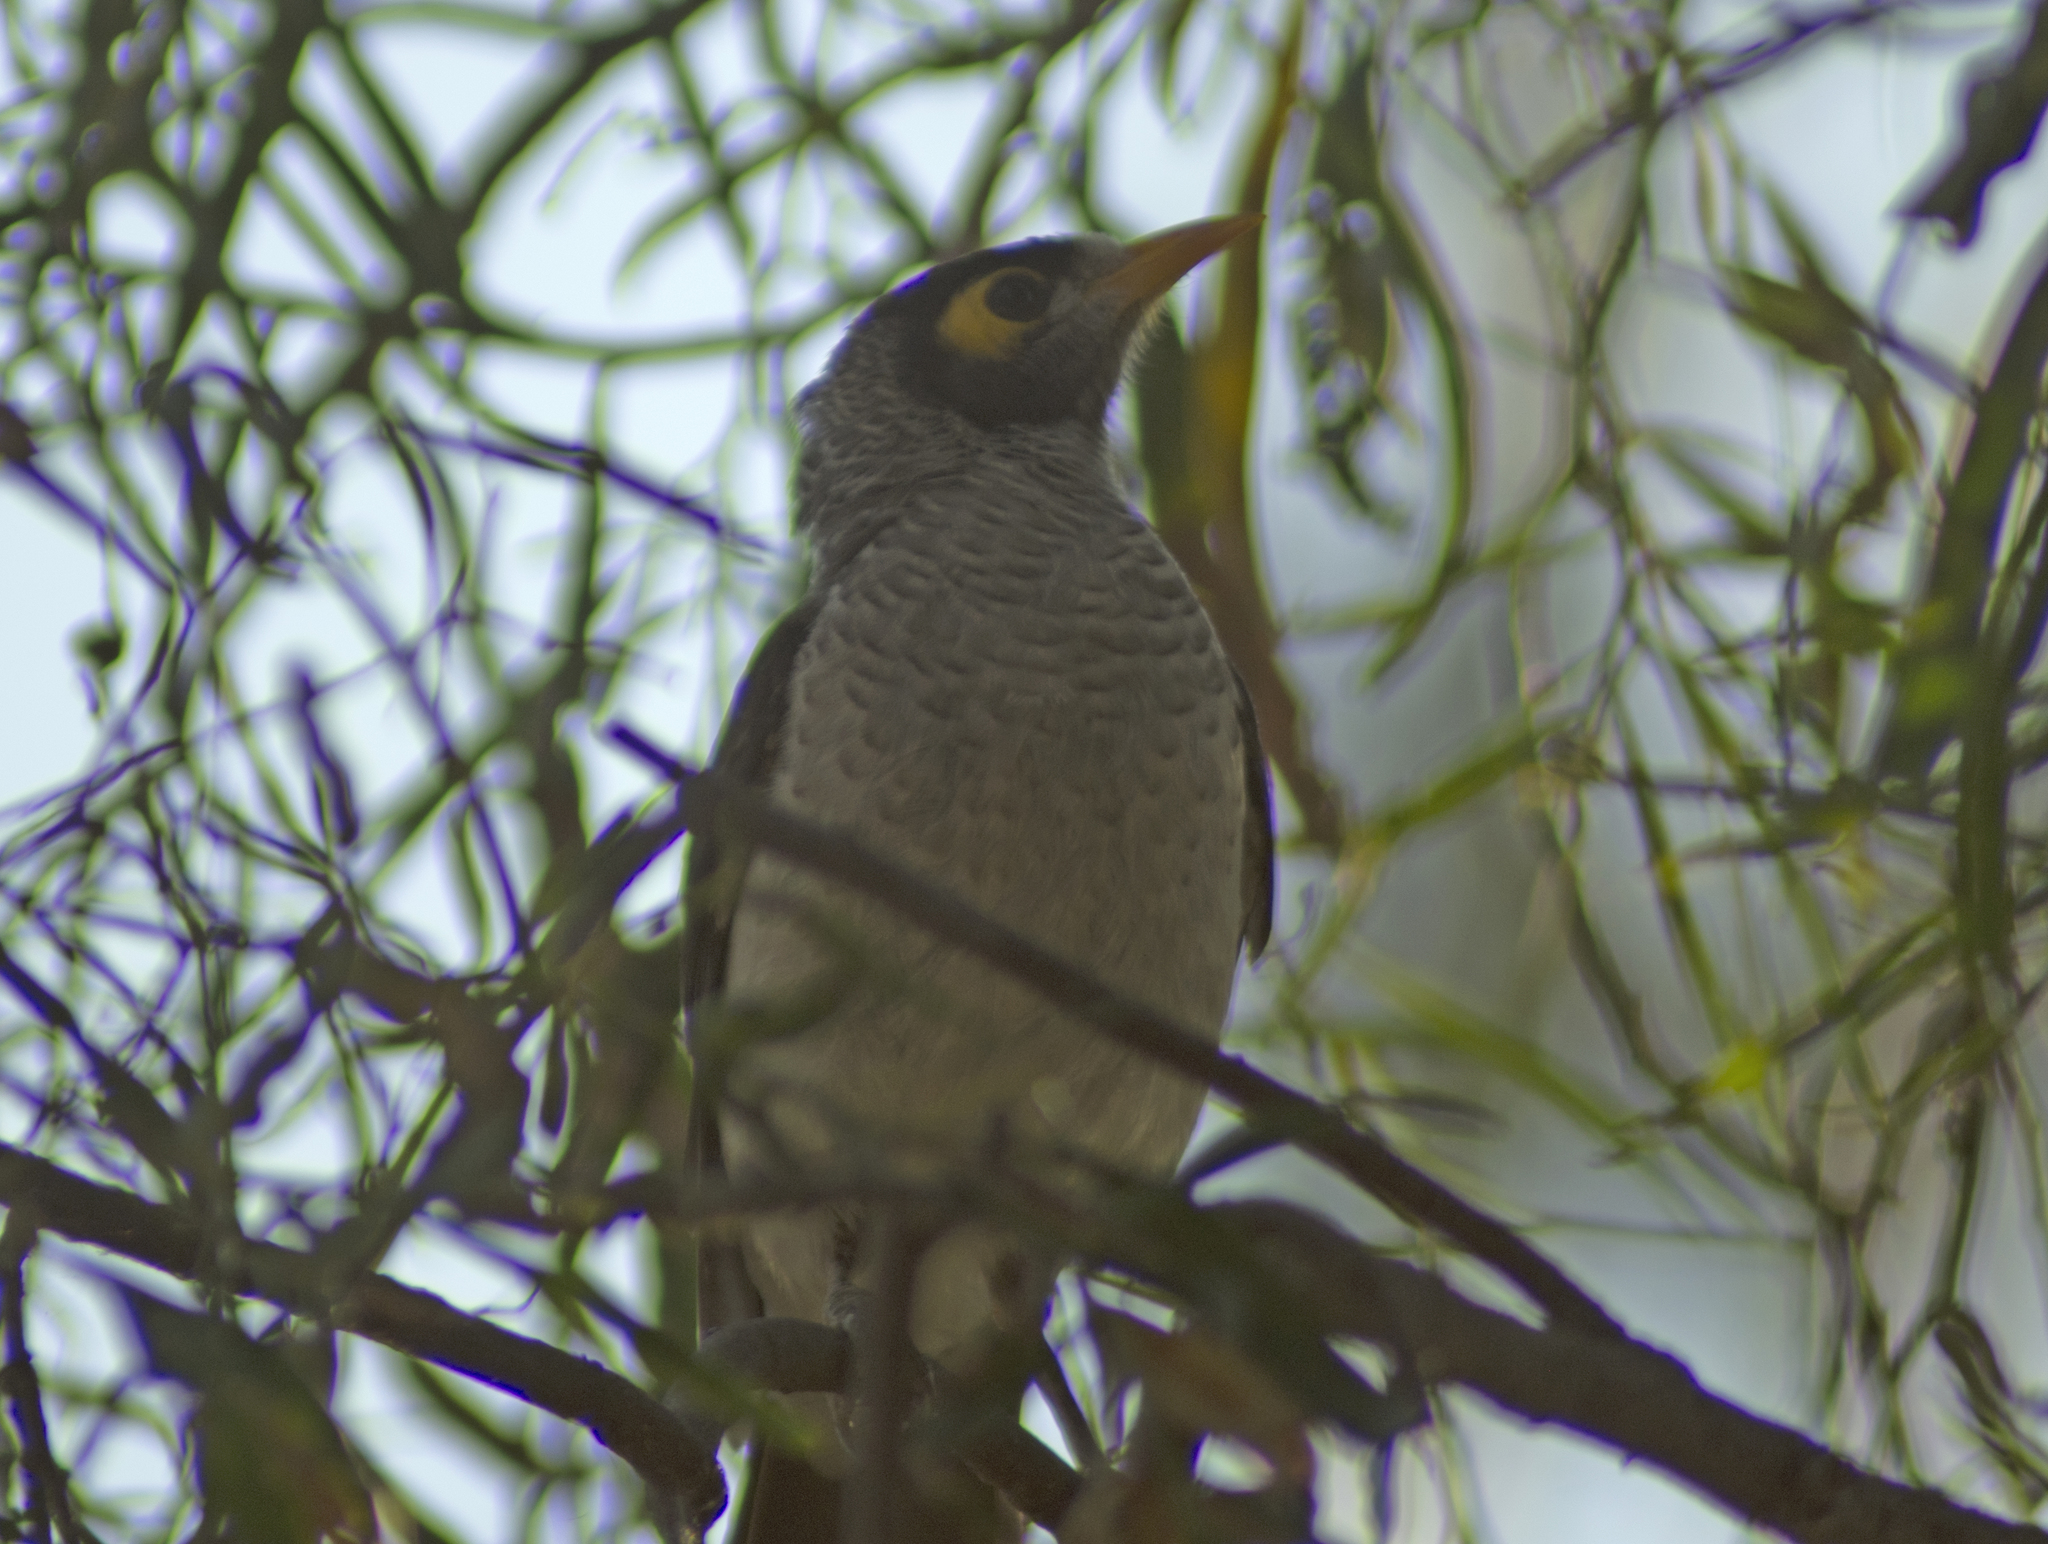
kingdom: Animalia
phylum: Chordata
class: Aves
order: Passeriformes
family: Meliphagidae
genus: Manorina
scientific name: Manorina melanocephala
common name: Noisy miner
